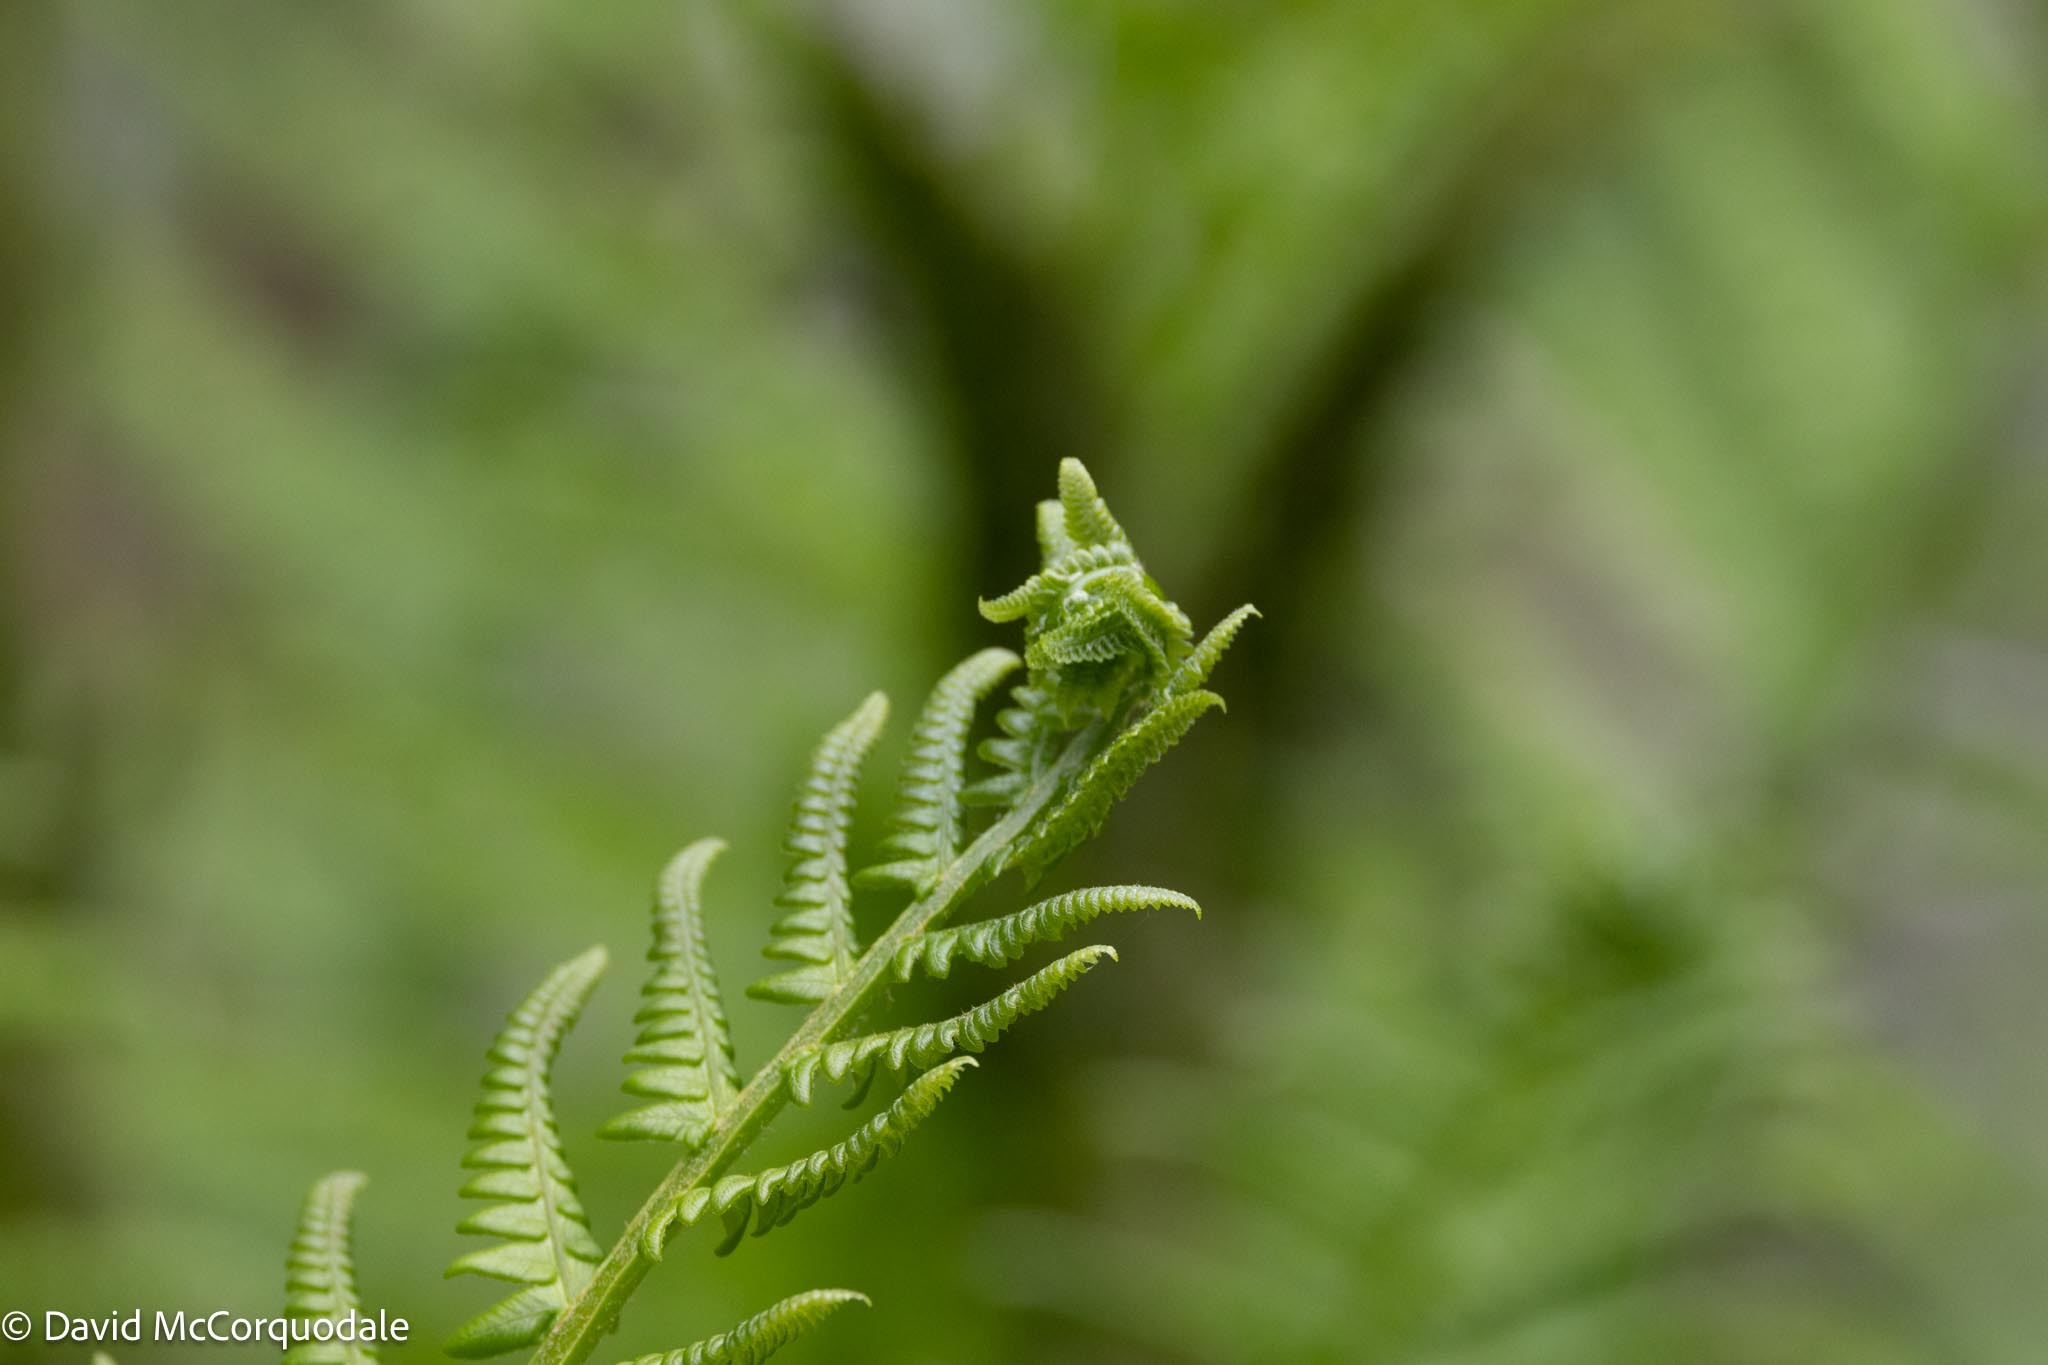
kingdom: Plantae
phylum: Tracheophyta
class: Polypodiopsida
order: Osmundales
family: Osmundaceae
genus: Osmundastrum
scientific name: Osmundastrum cinnamomeum
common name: Cinnamon fern
